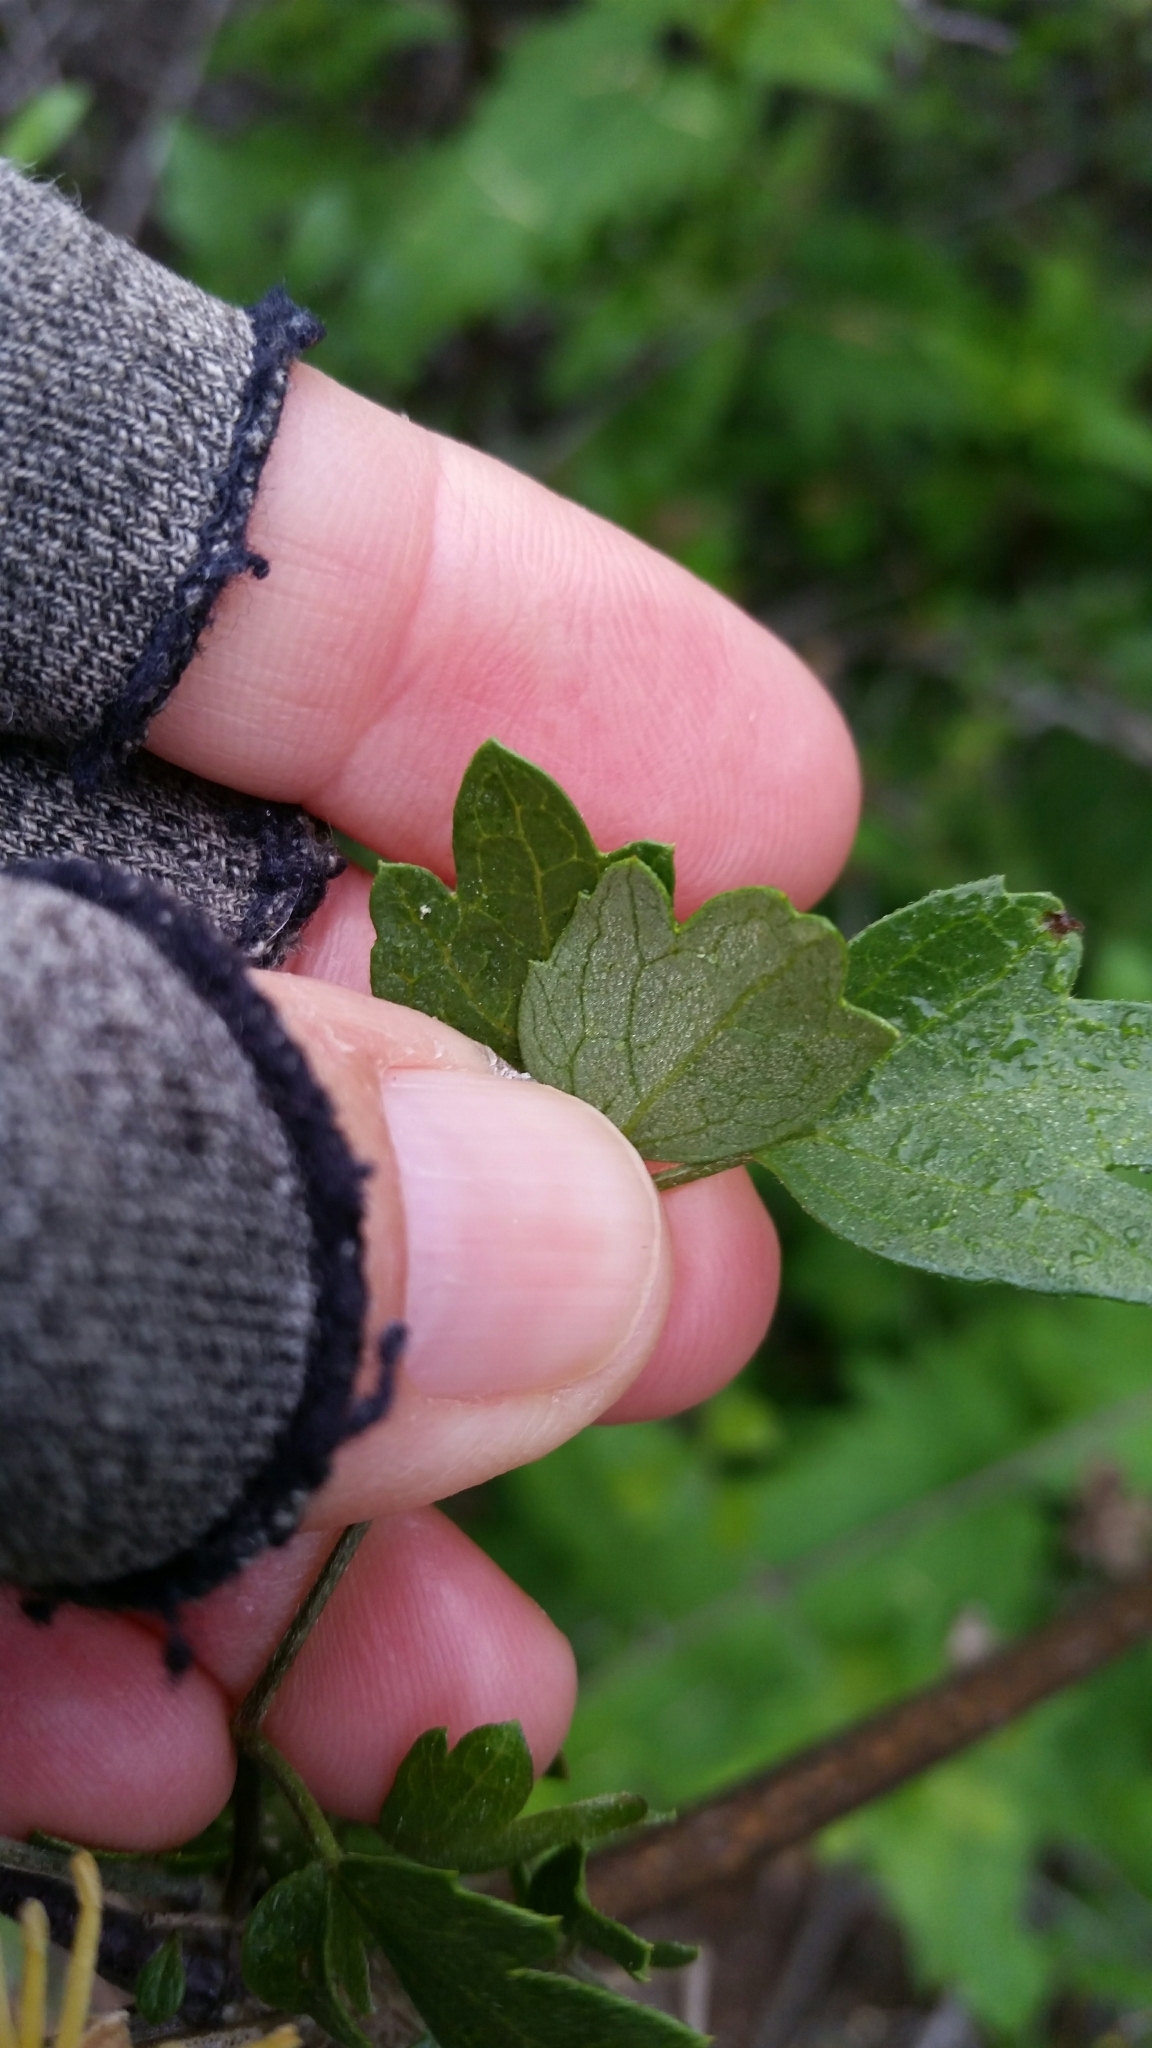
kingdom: Plantae
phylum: Tracheophyta
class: Magnoliopsida
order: Ranunculales
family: Ranunculaceae
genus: Clematis
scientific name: Clematis pauciflora
